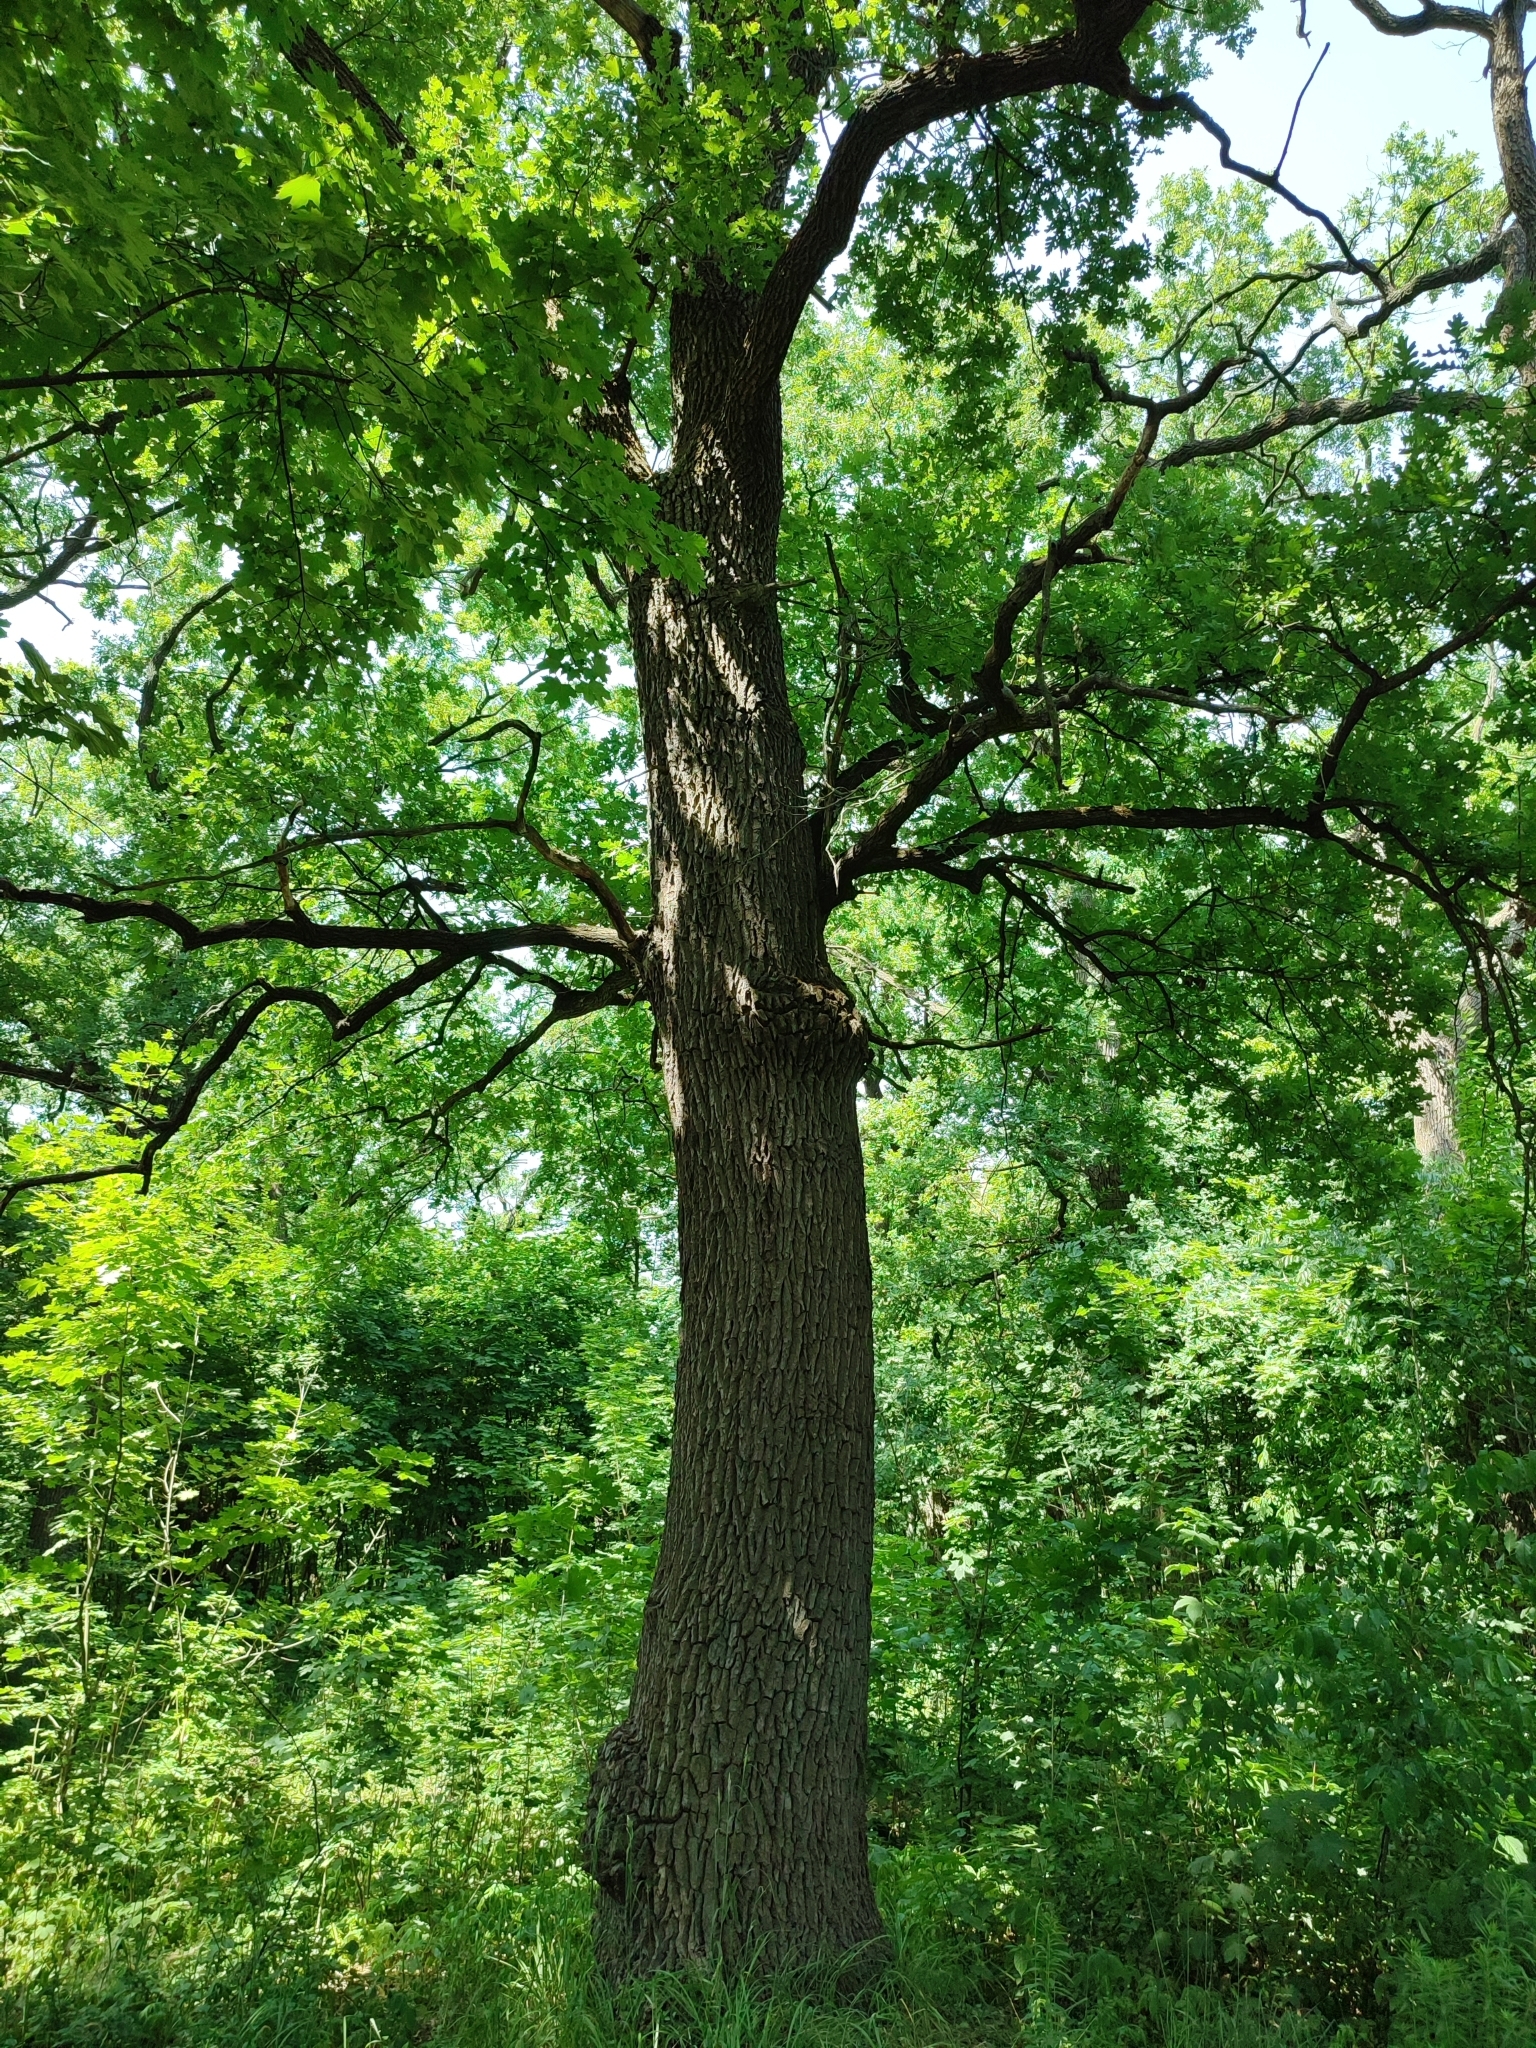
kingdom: Plantae
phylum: Tracheophyta
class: Magnoliopsida
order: Fagales
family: Fagaceae
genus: Quercus
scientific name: Quercus robur
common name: Pedunculate oak
